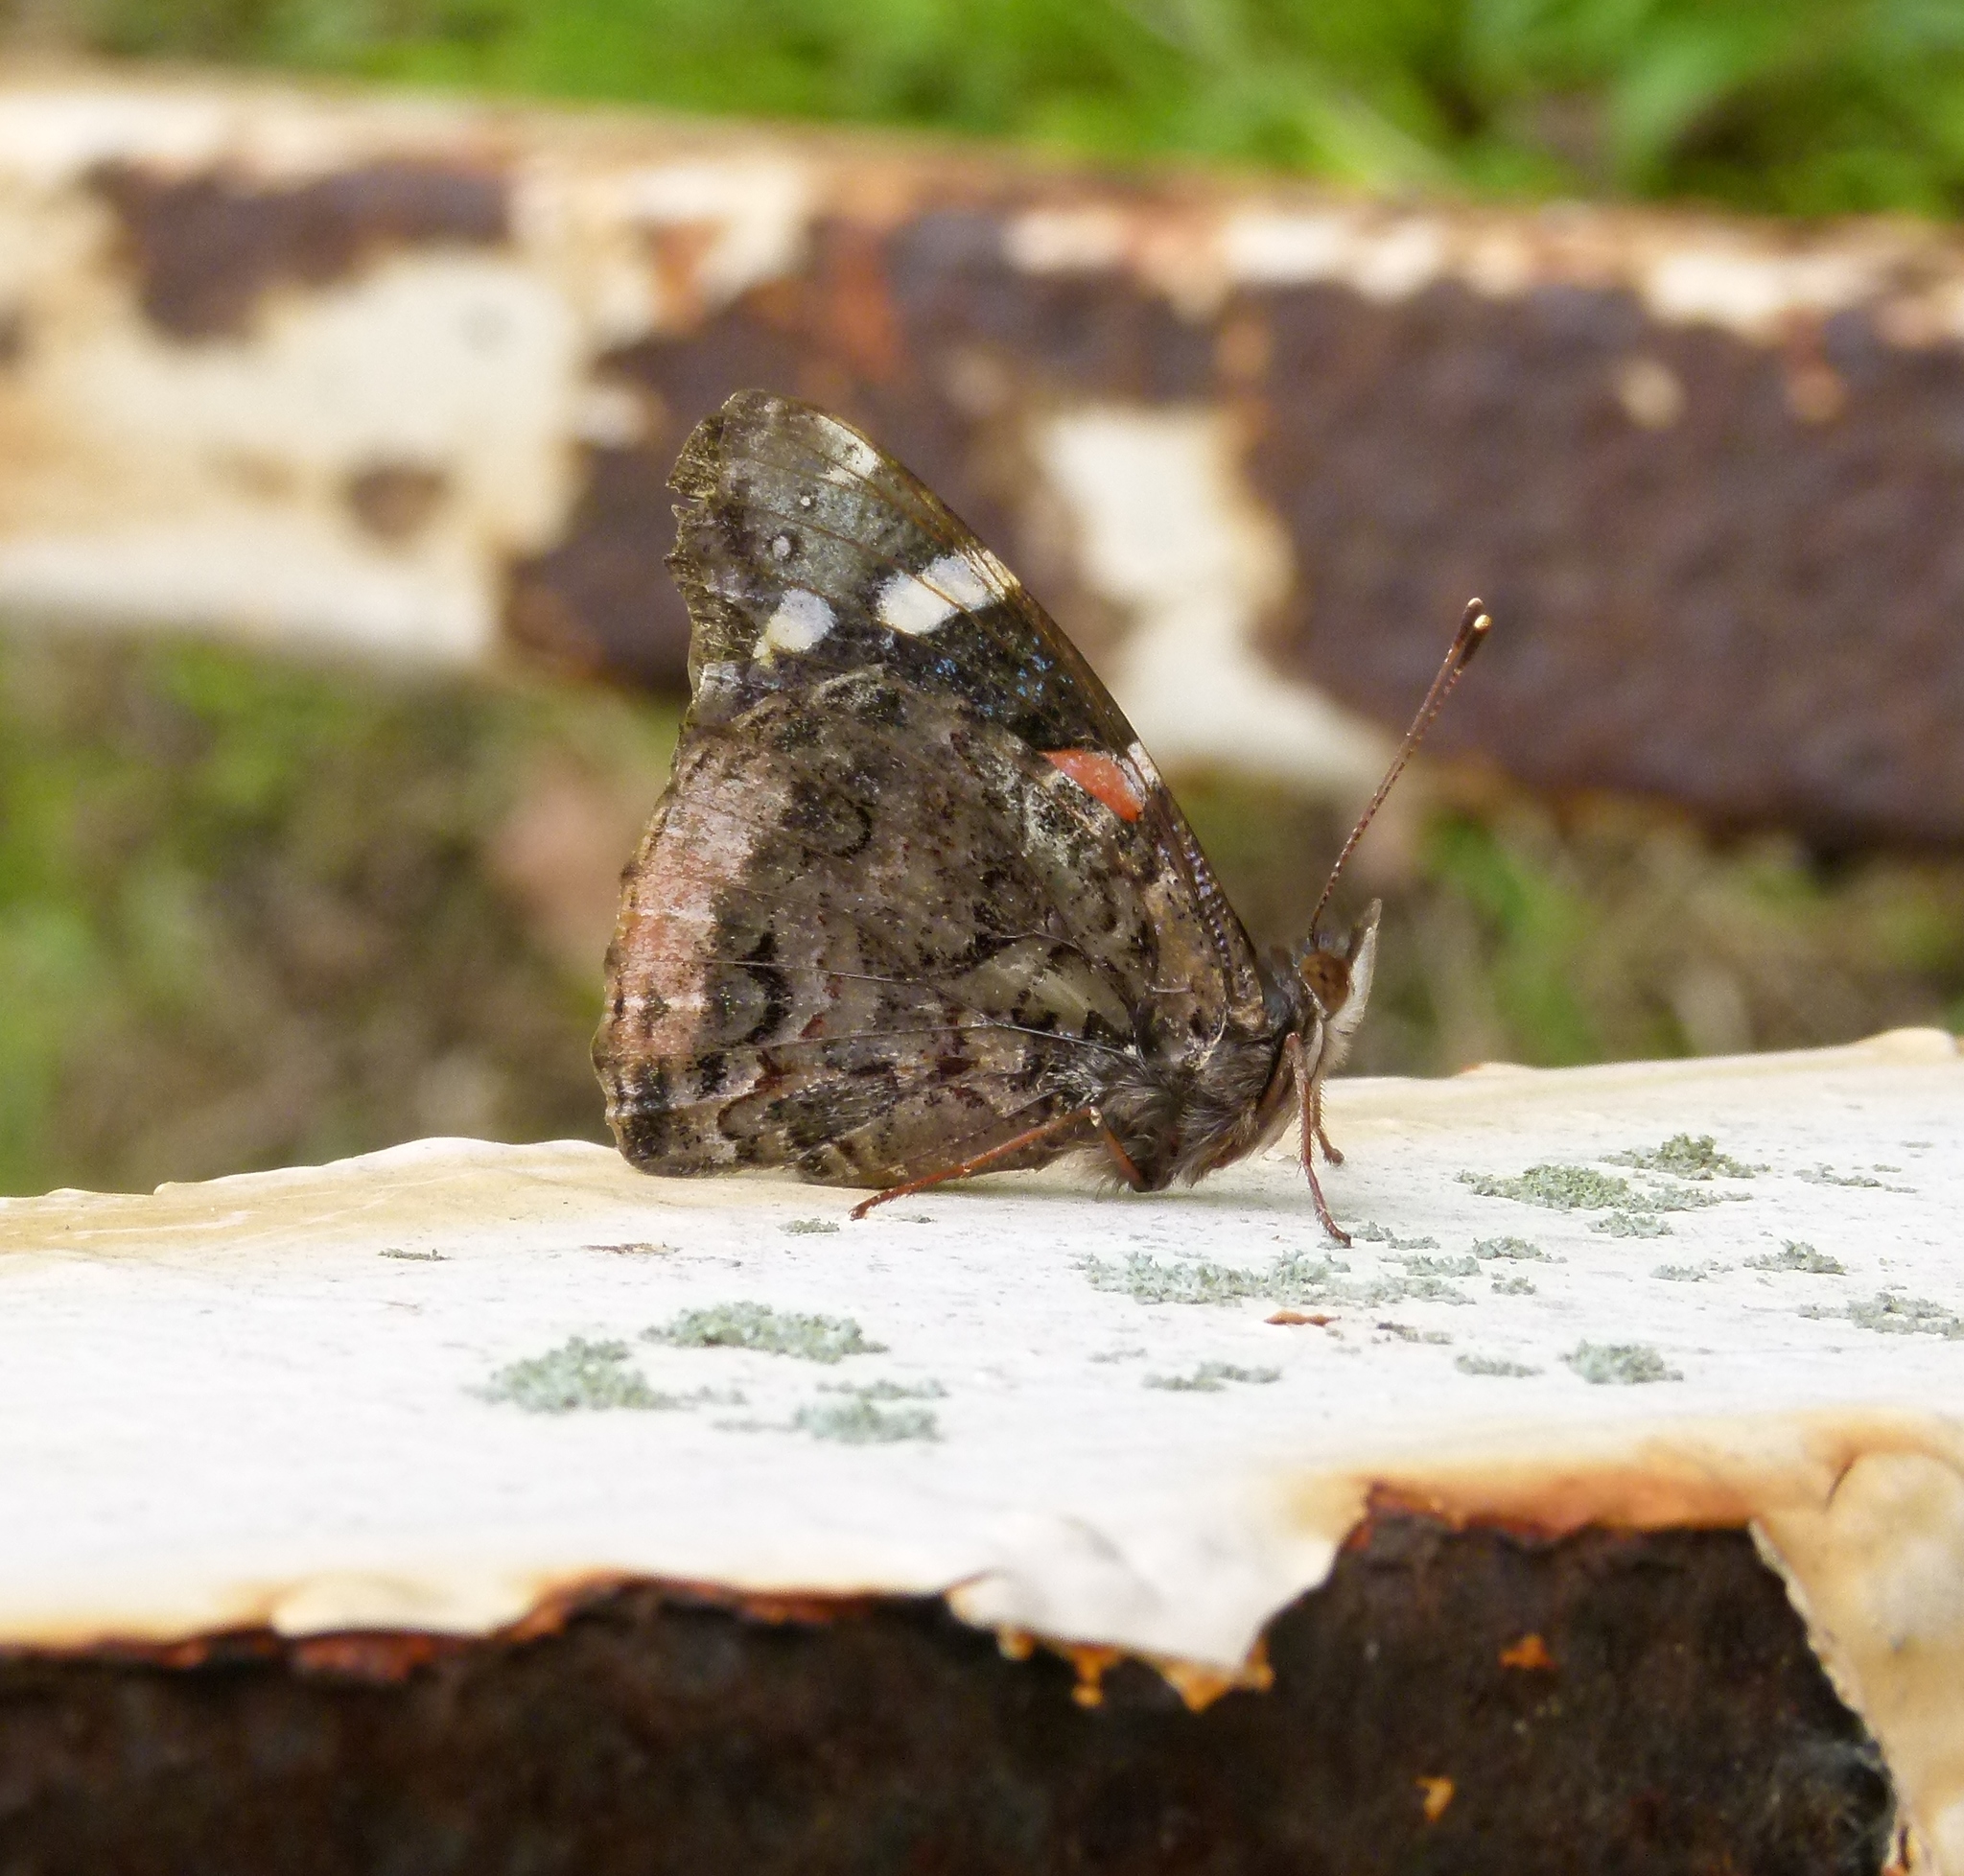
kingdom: Animalia
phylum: Arthropoda
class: Insecta
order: Lepidoptera
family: Nymphalidae
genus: Vanessa
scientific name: Vanessa atalanta
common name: Red admiral
